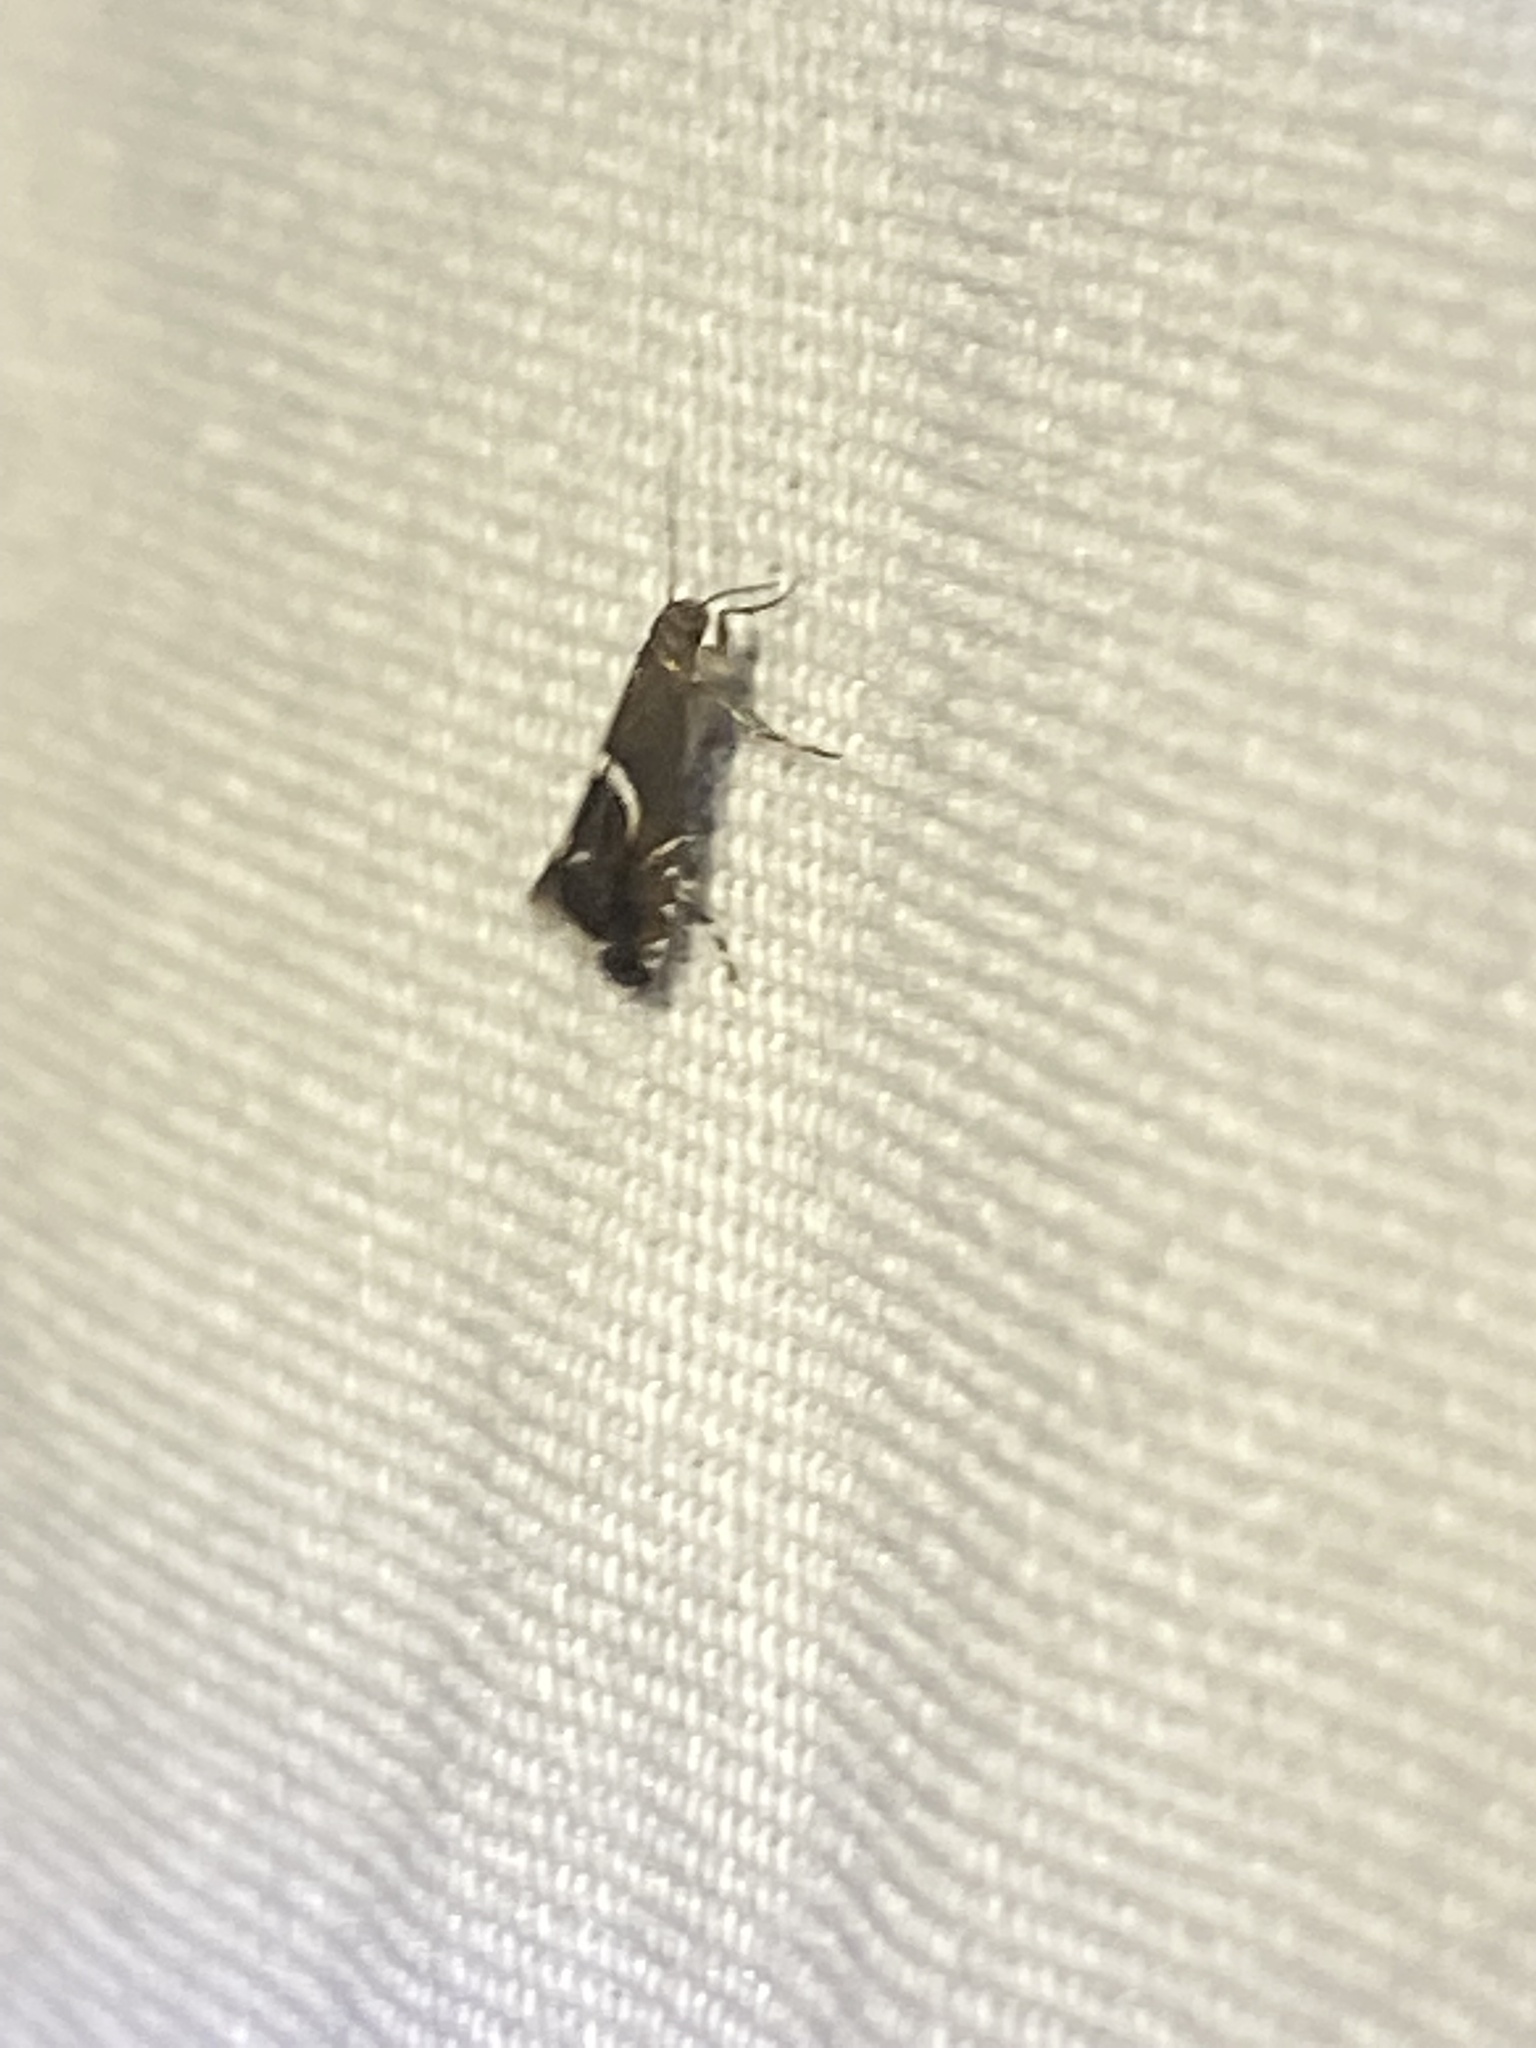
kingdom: Animalia
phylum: Arthropoda
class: Insecta
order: Lepidoptera
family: Glyphipterigidae
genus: Glyphipterix
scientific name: Glyphipterix Diploschizia impigritella
